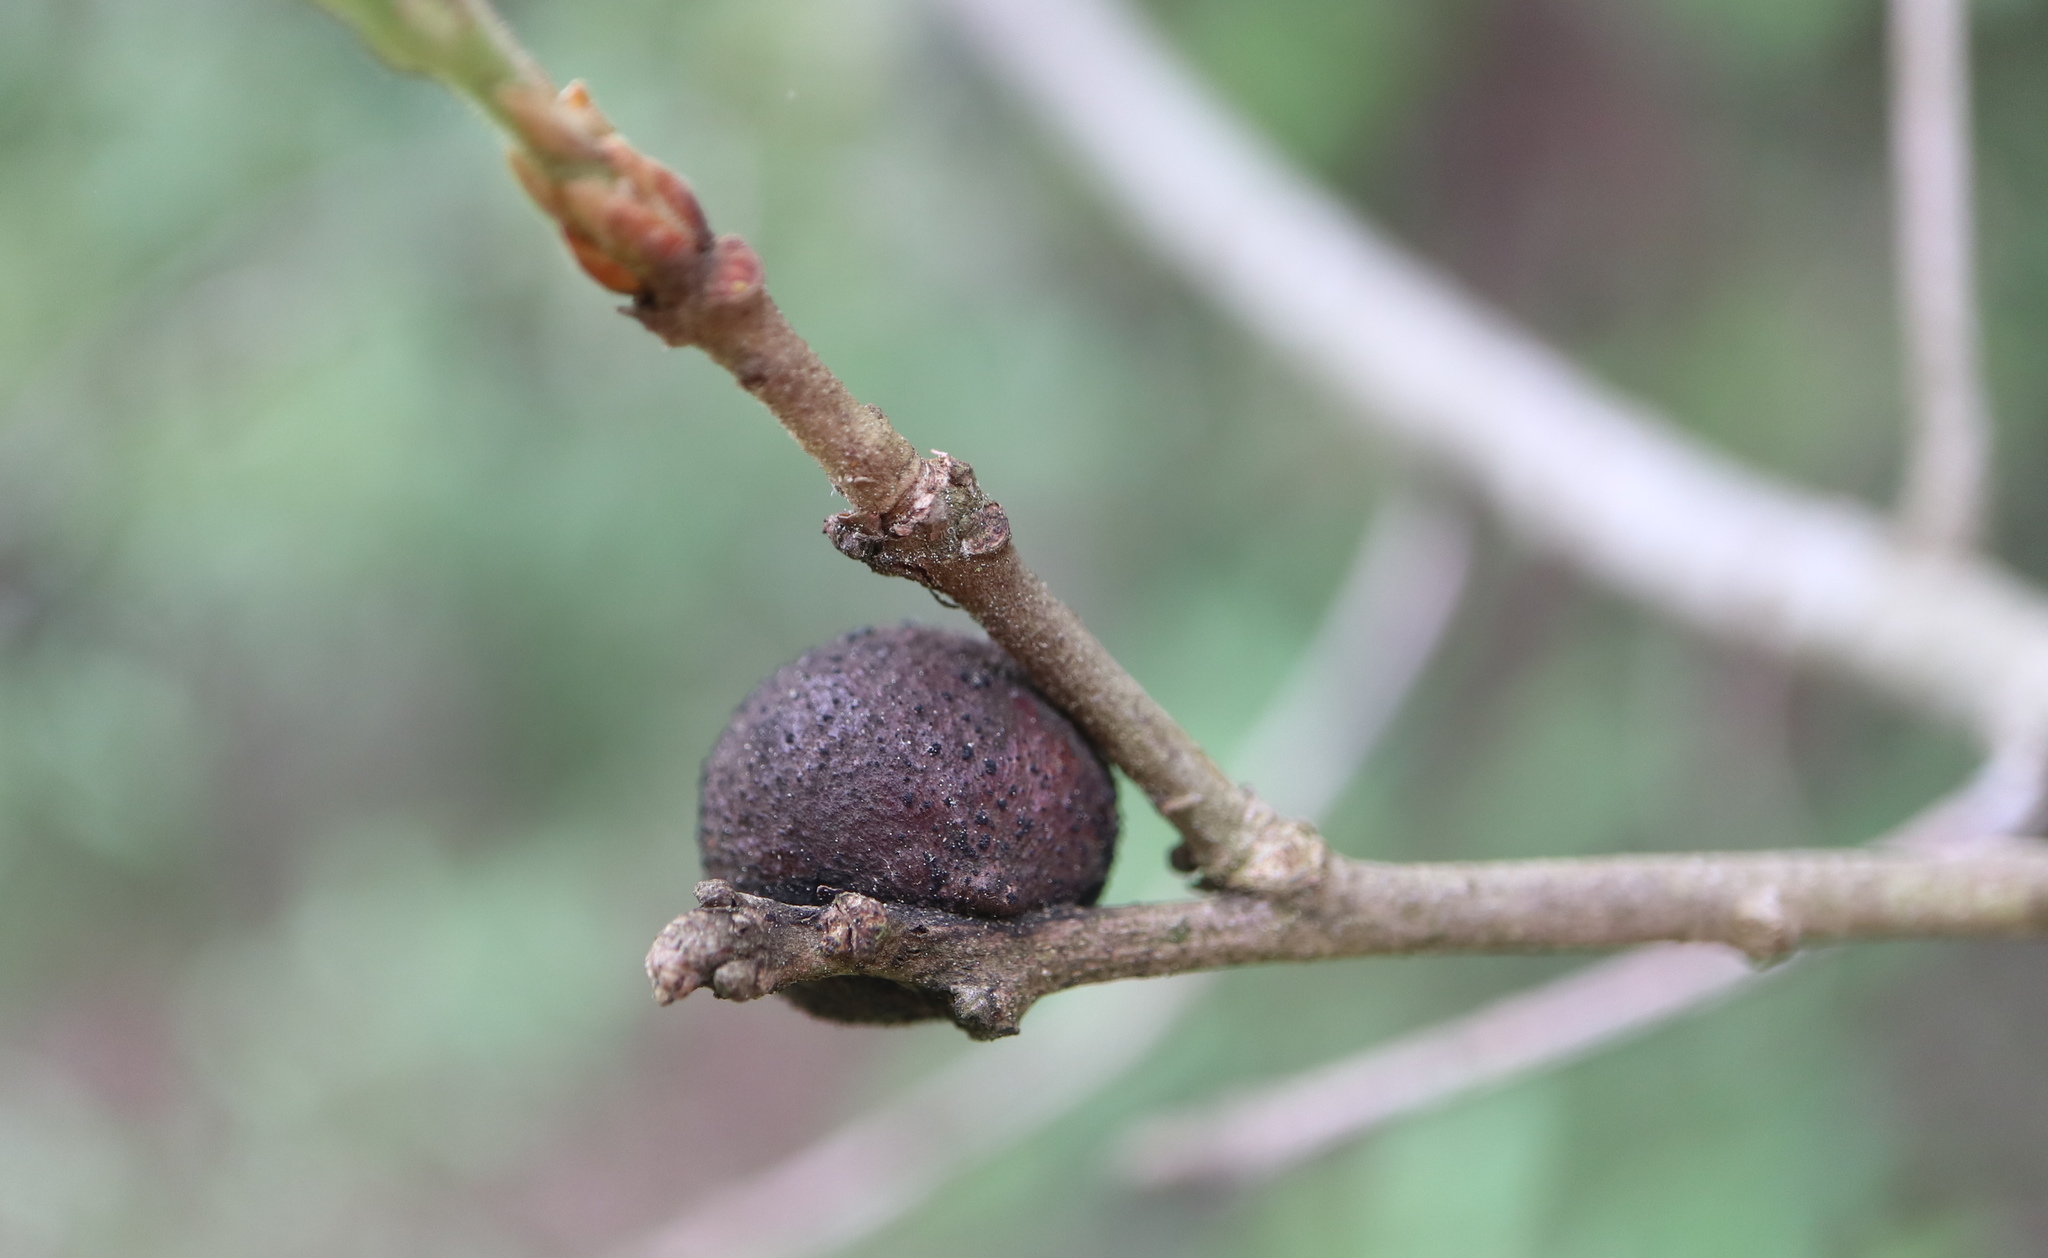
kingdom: Animalia
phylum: Arthropoda
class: Insecta
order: Hymenoptera
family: Cynipidae
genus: Disholcaspis
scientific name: Disholcaspis quercusglobulus
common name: Round bullet gall wasp
